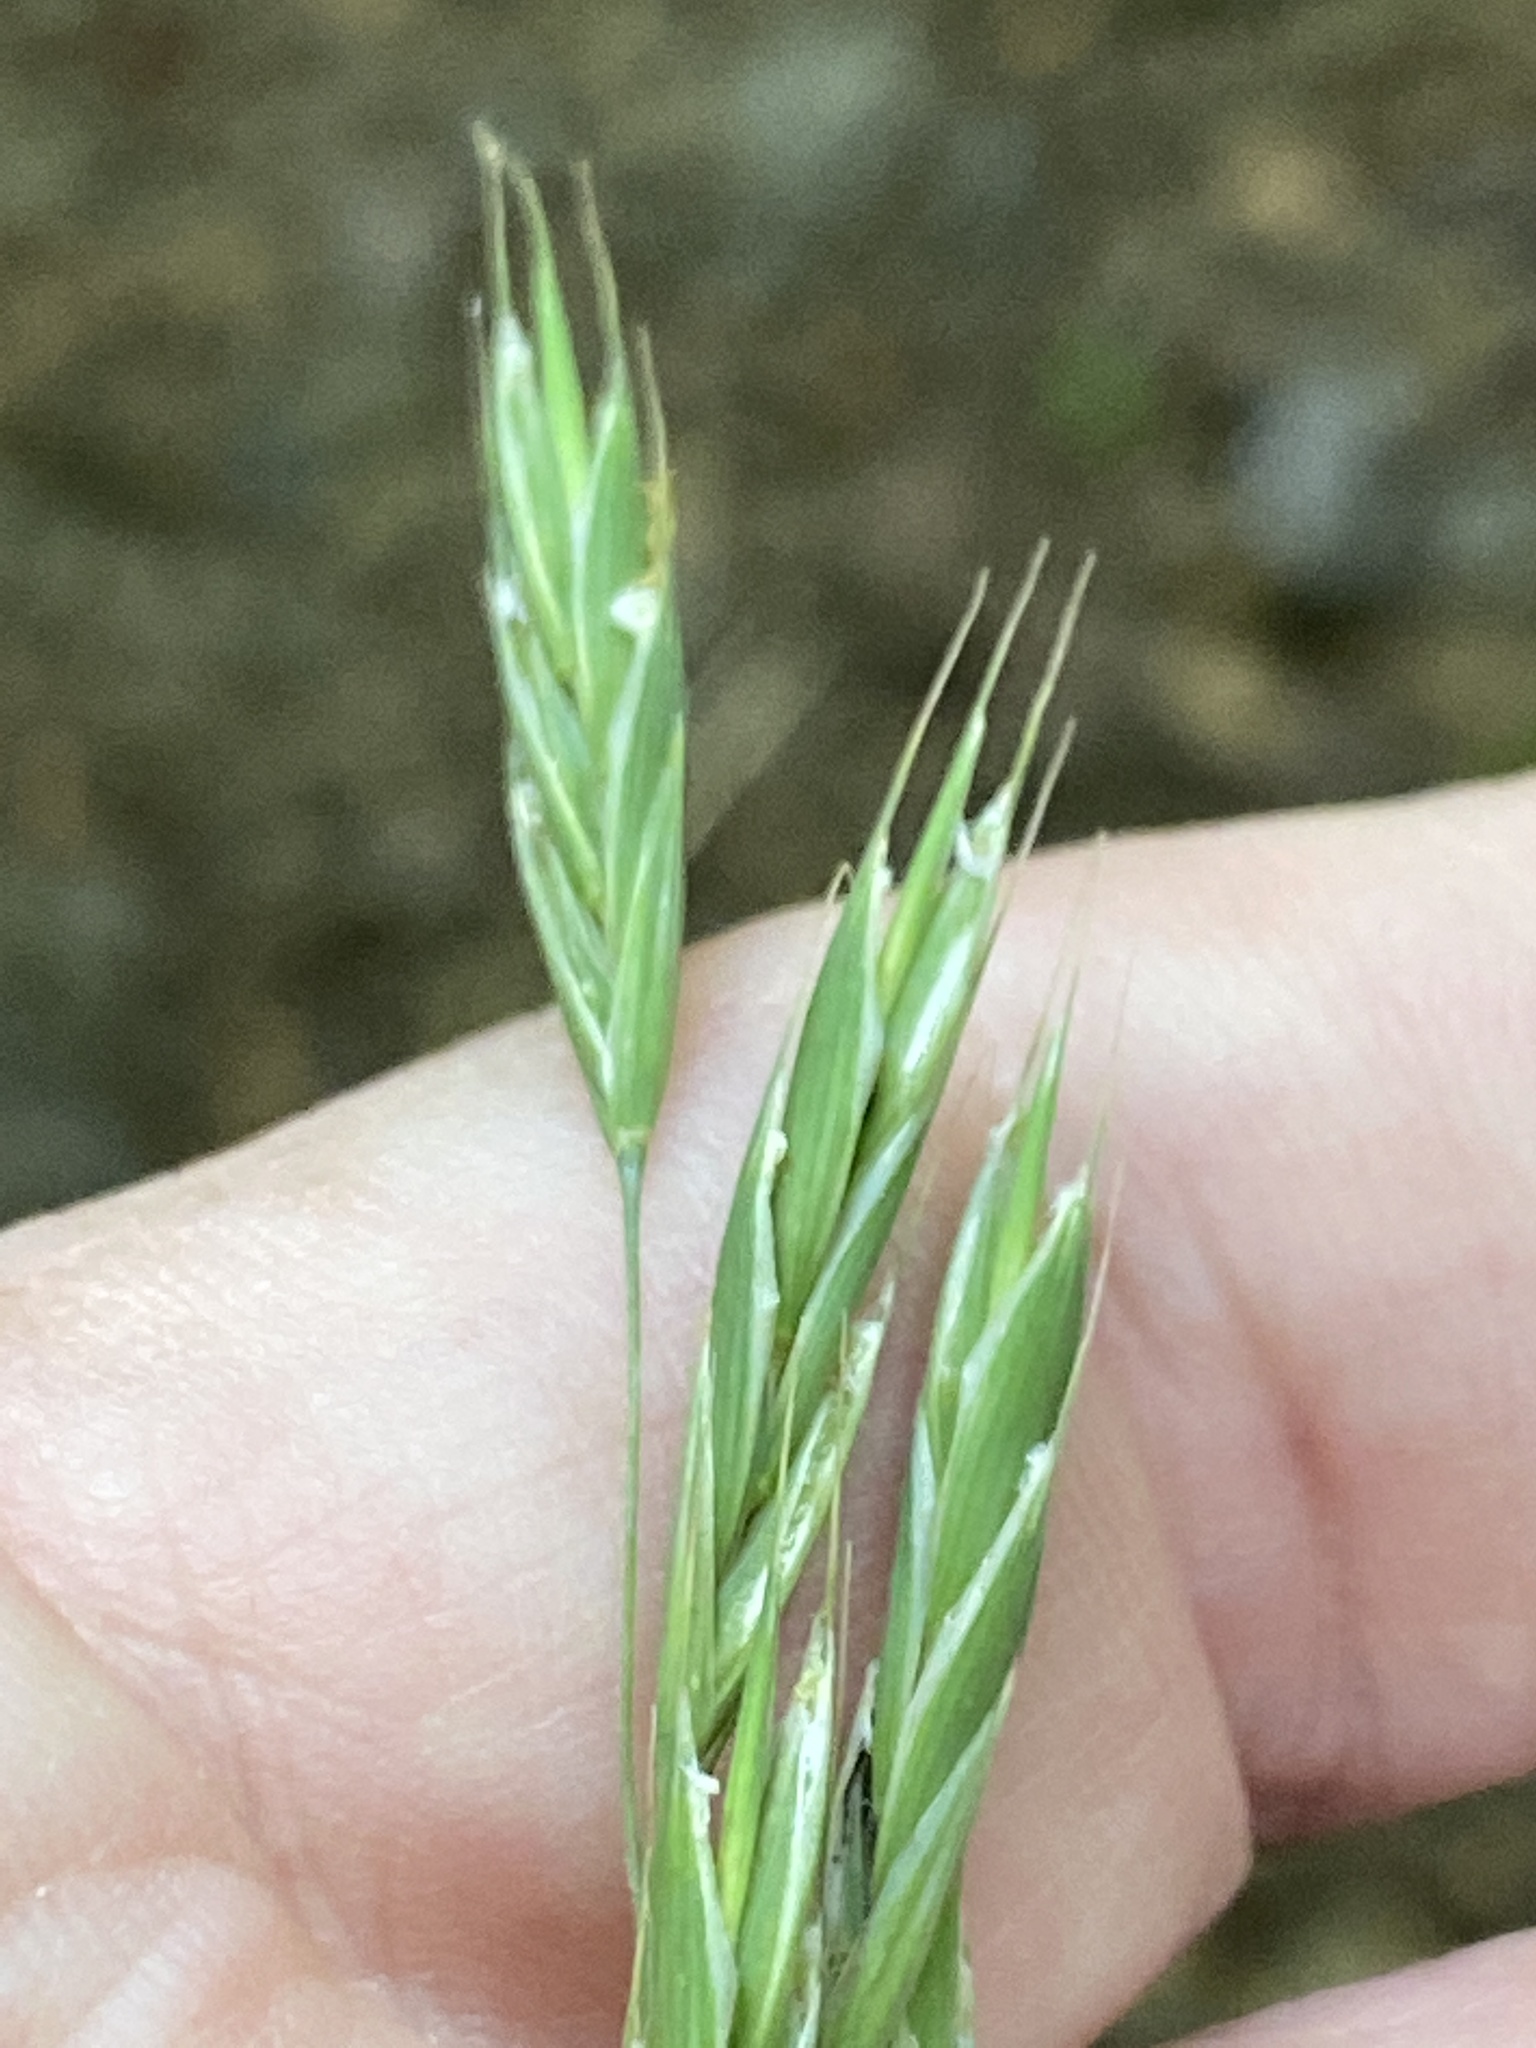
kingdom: Plantae
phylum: Tracheophyta
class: Liliopsida
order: Poales
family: Poaceae
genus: Bromus
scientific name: Bromus pubescens
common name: Hairy wood brome grass
